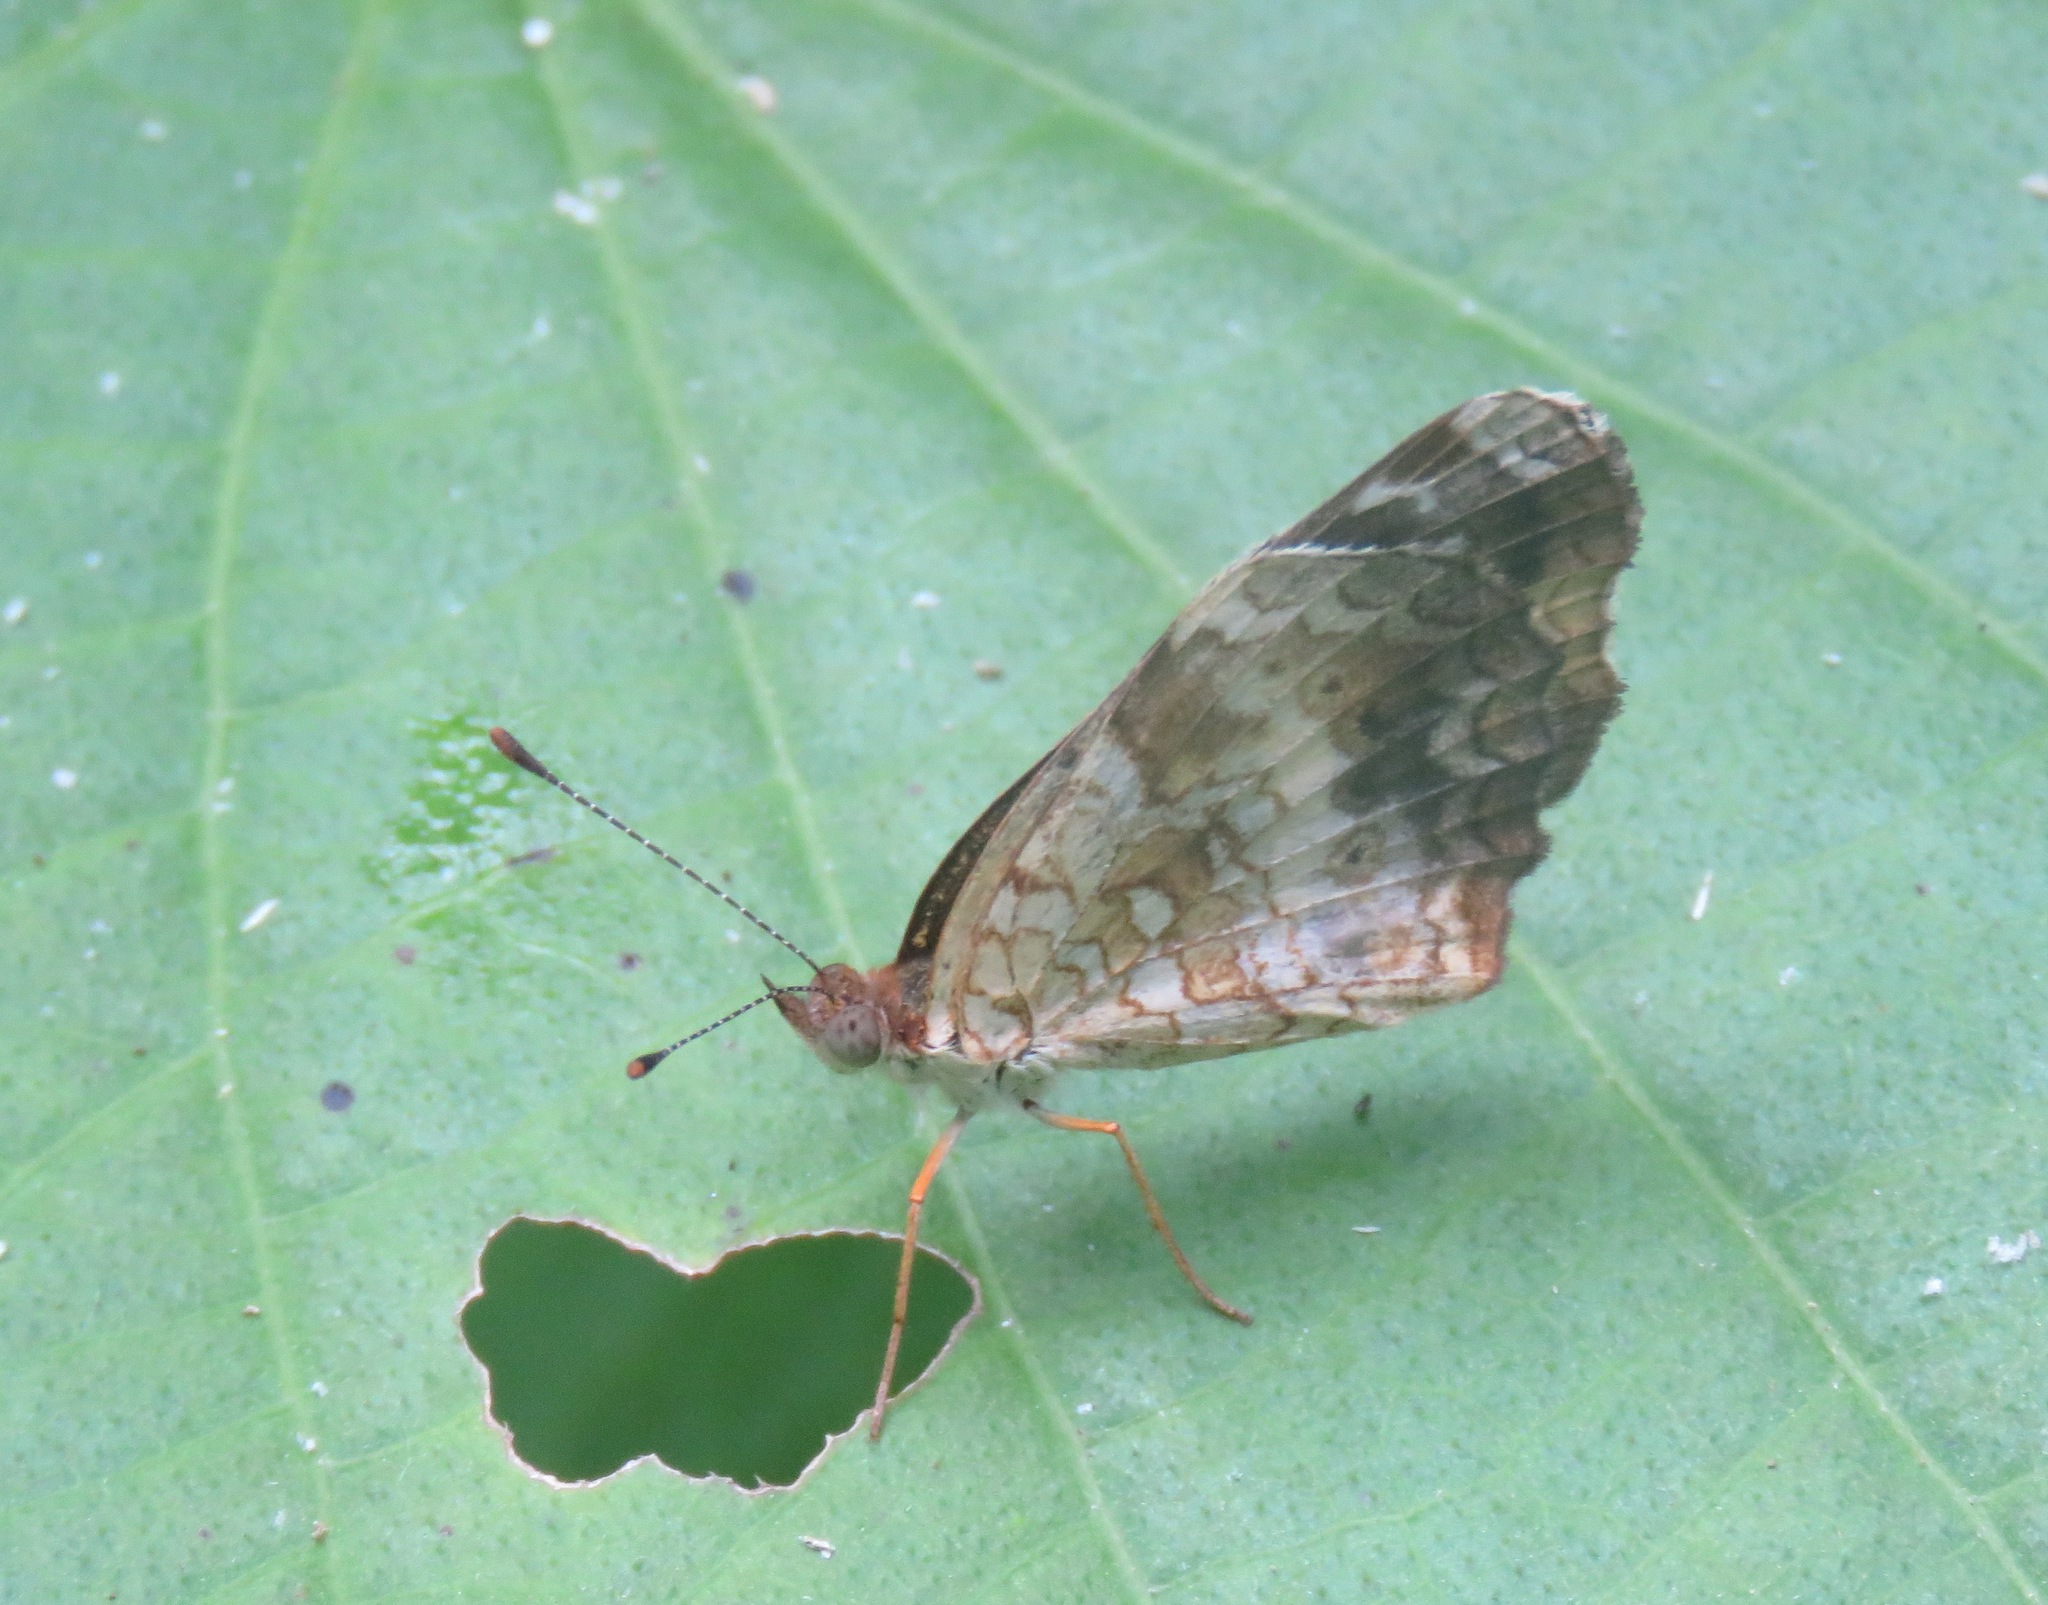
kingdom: Animalia
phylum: Arthropoda
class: Insecta
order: Lepidoptera
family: Nymphalidae
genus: Anthanassa
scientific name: Anthanassa tulcis
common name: Pale-banded crescent
